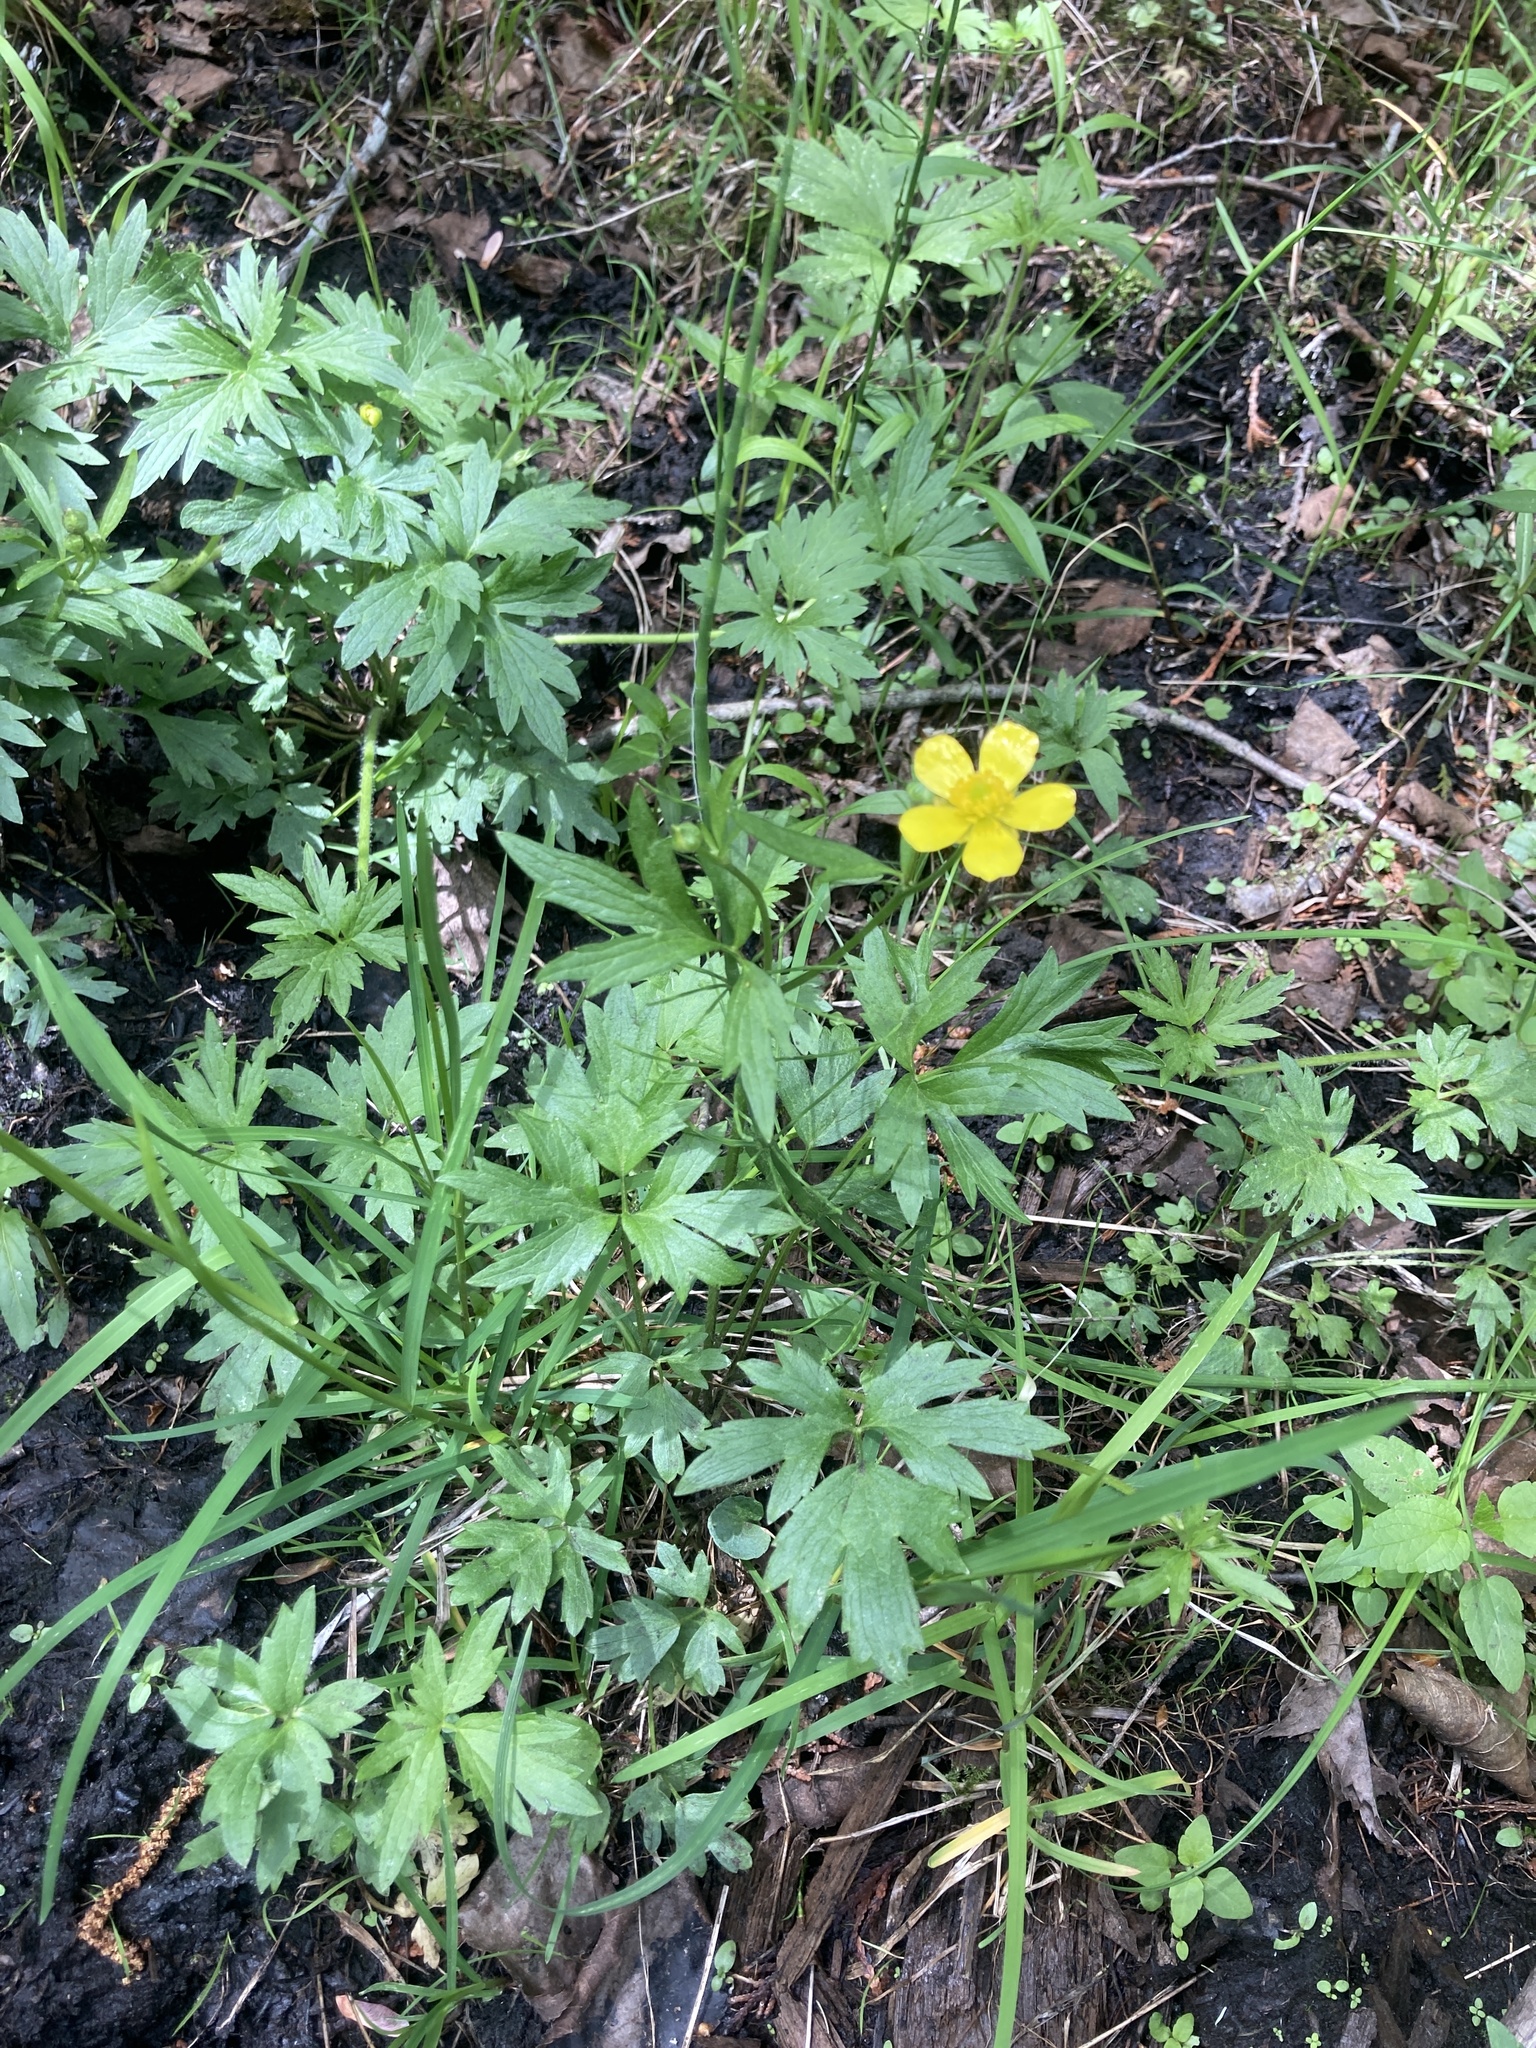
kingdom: Plantae
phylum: Tracheophyta
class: Magnoliopsida
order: Ranunculales
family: Ranunculaceae
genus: Ranunculus
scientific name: Ranunculus hispidus
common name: Bristly buttercup
